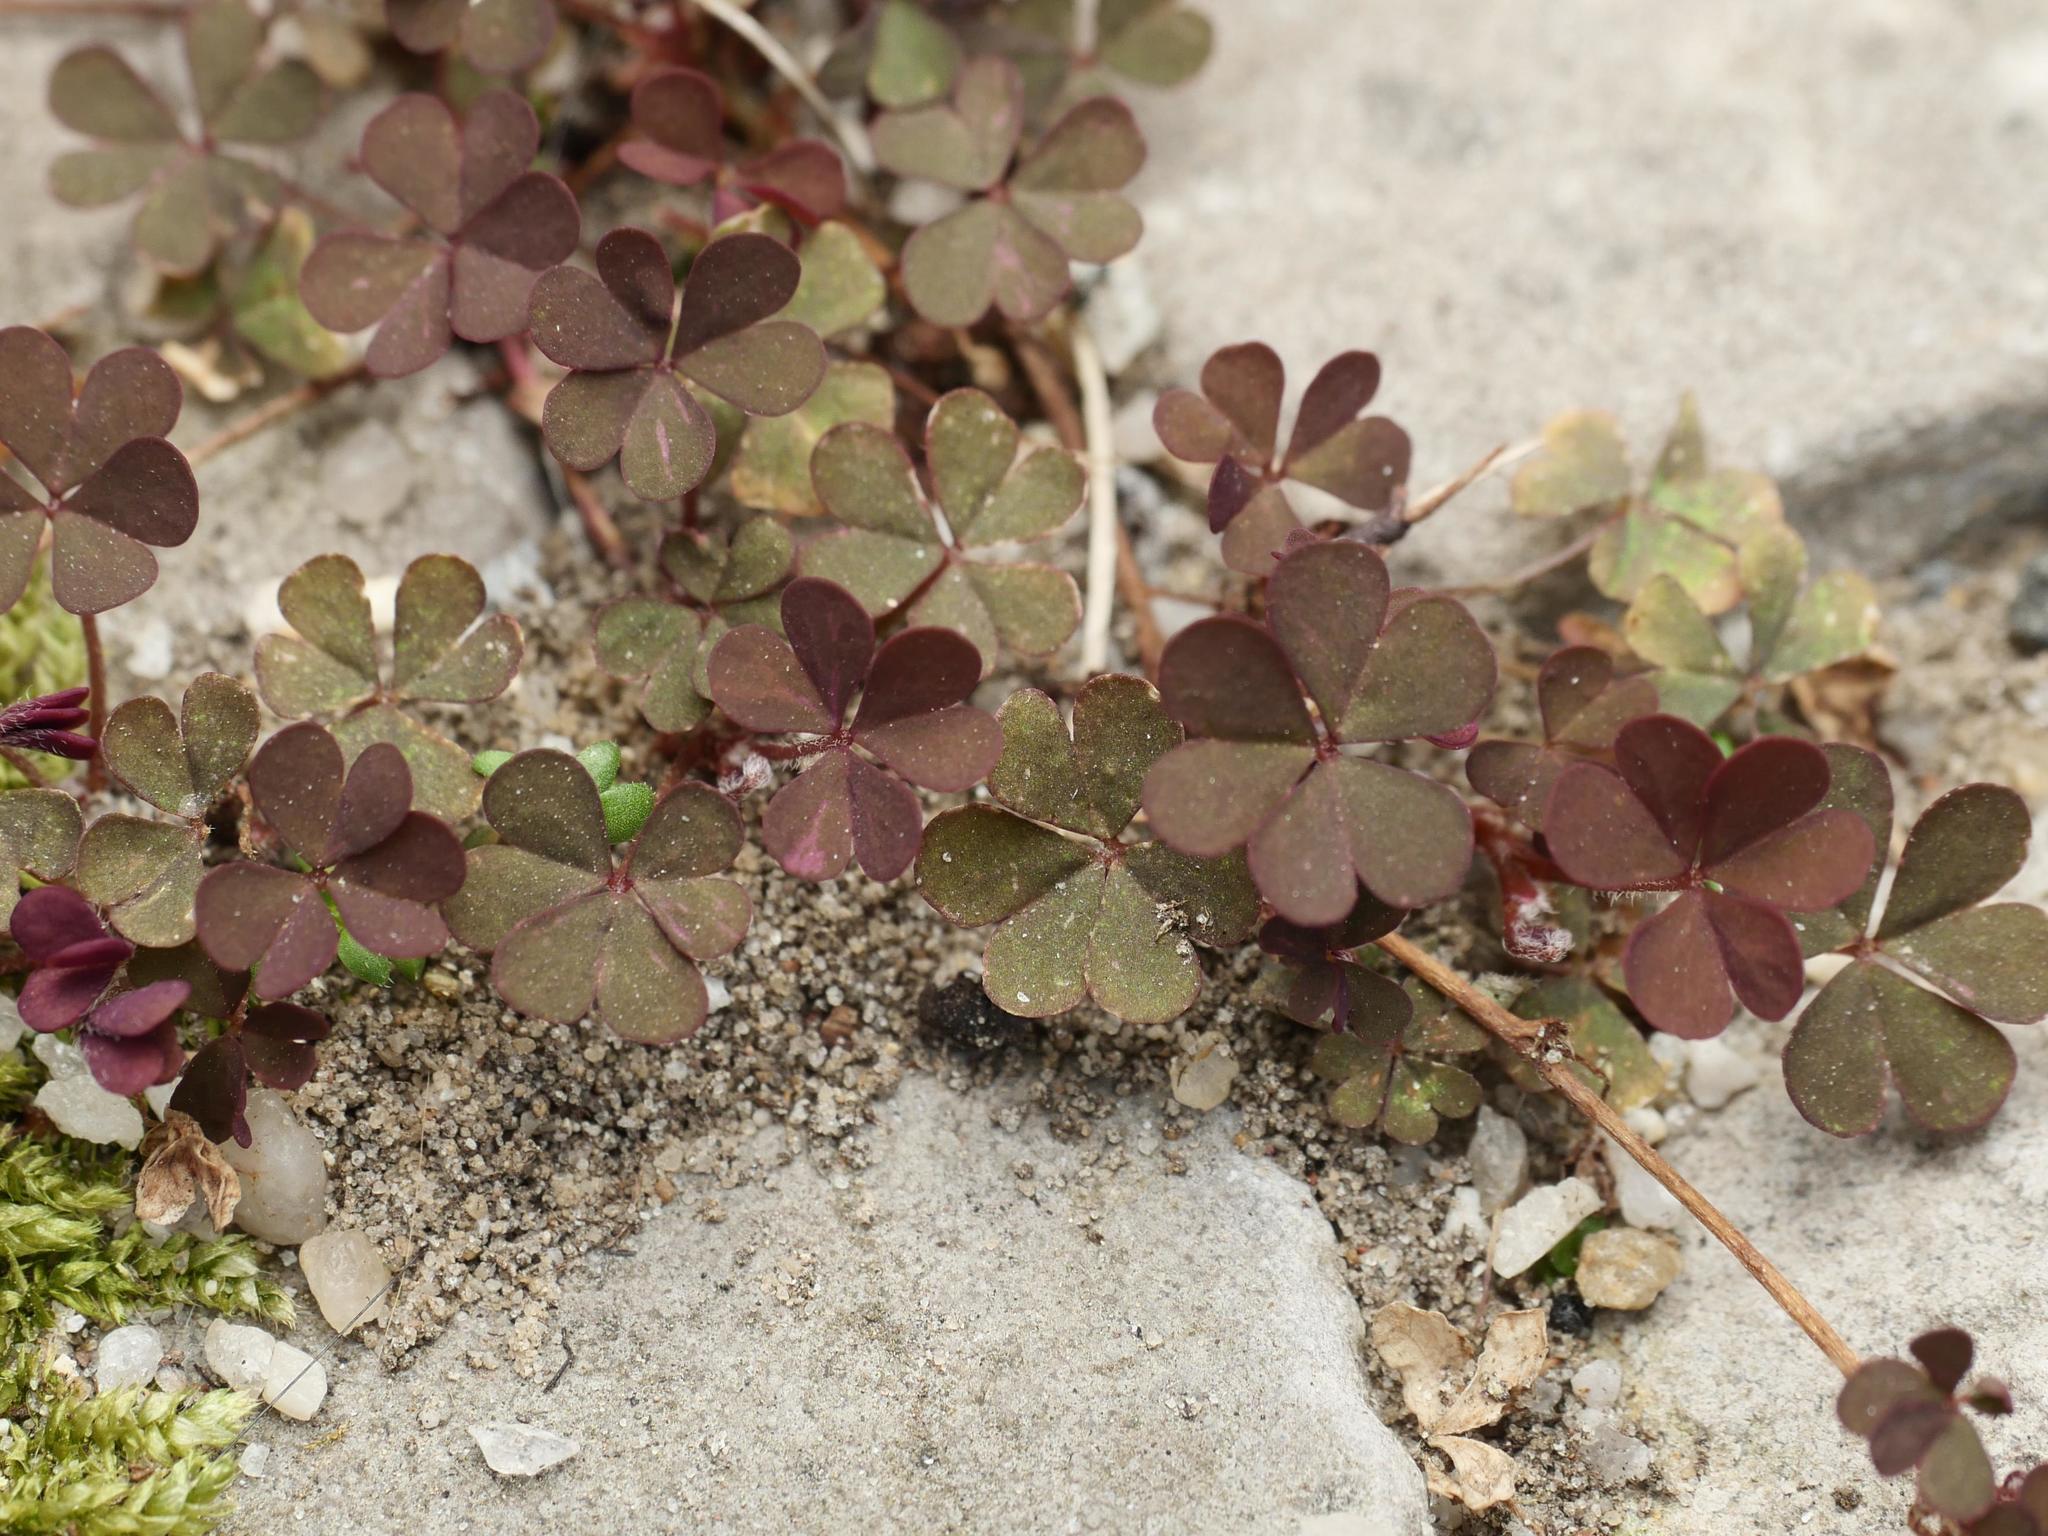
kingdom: Plantae
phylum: Tracheophyta
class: Magnoliopsida
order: Oxalidales
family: Oxalidaceae
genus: Oxalis
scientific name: Oxalis corniculata
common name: Procumbent yellow-sorrel
